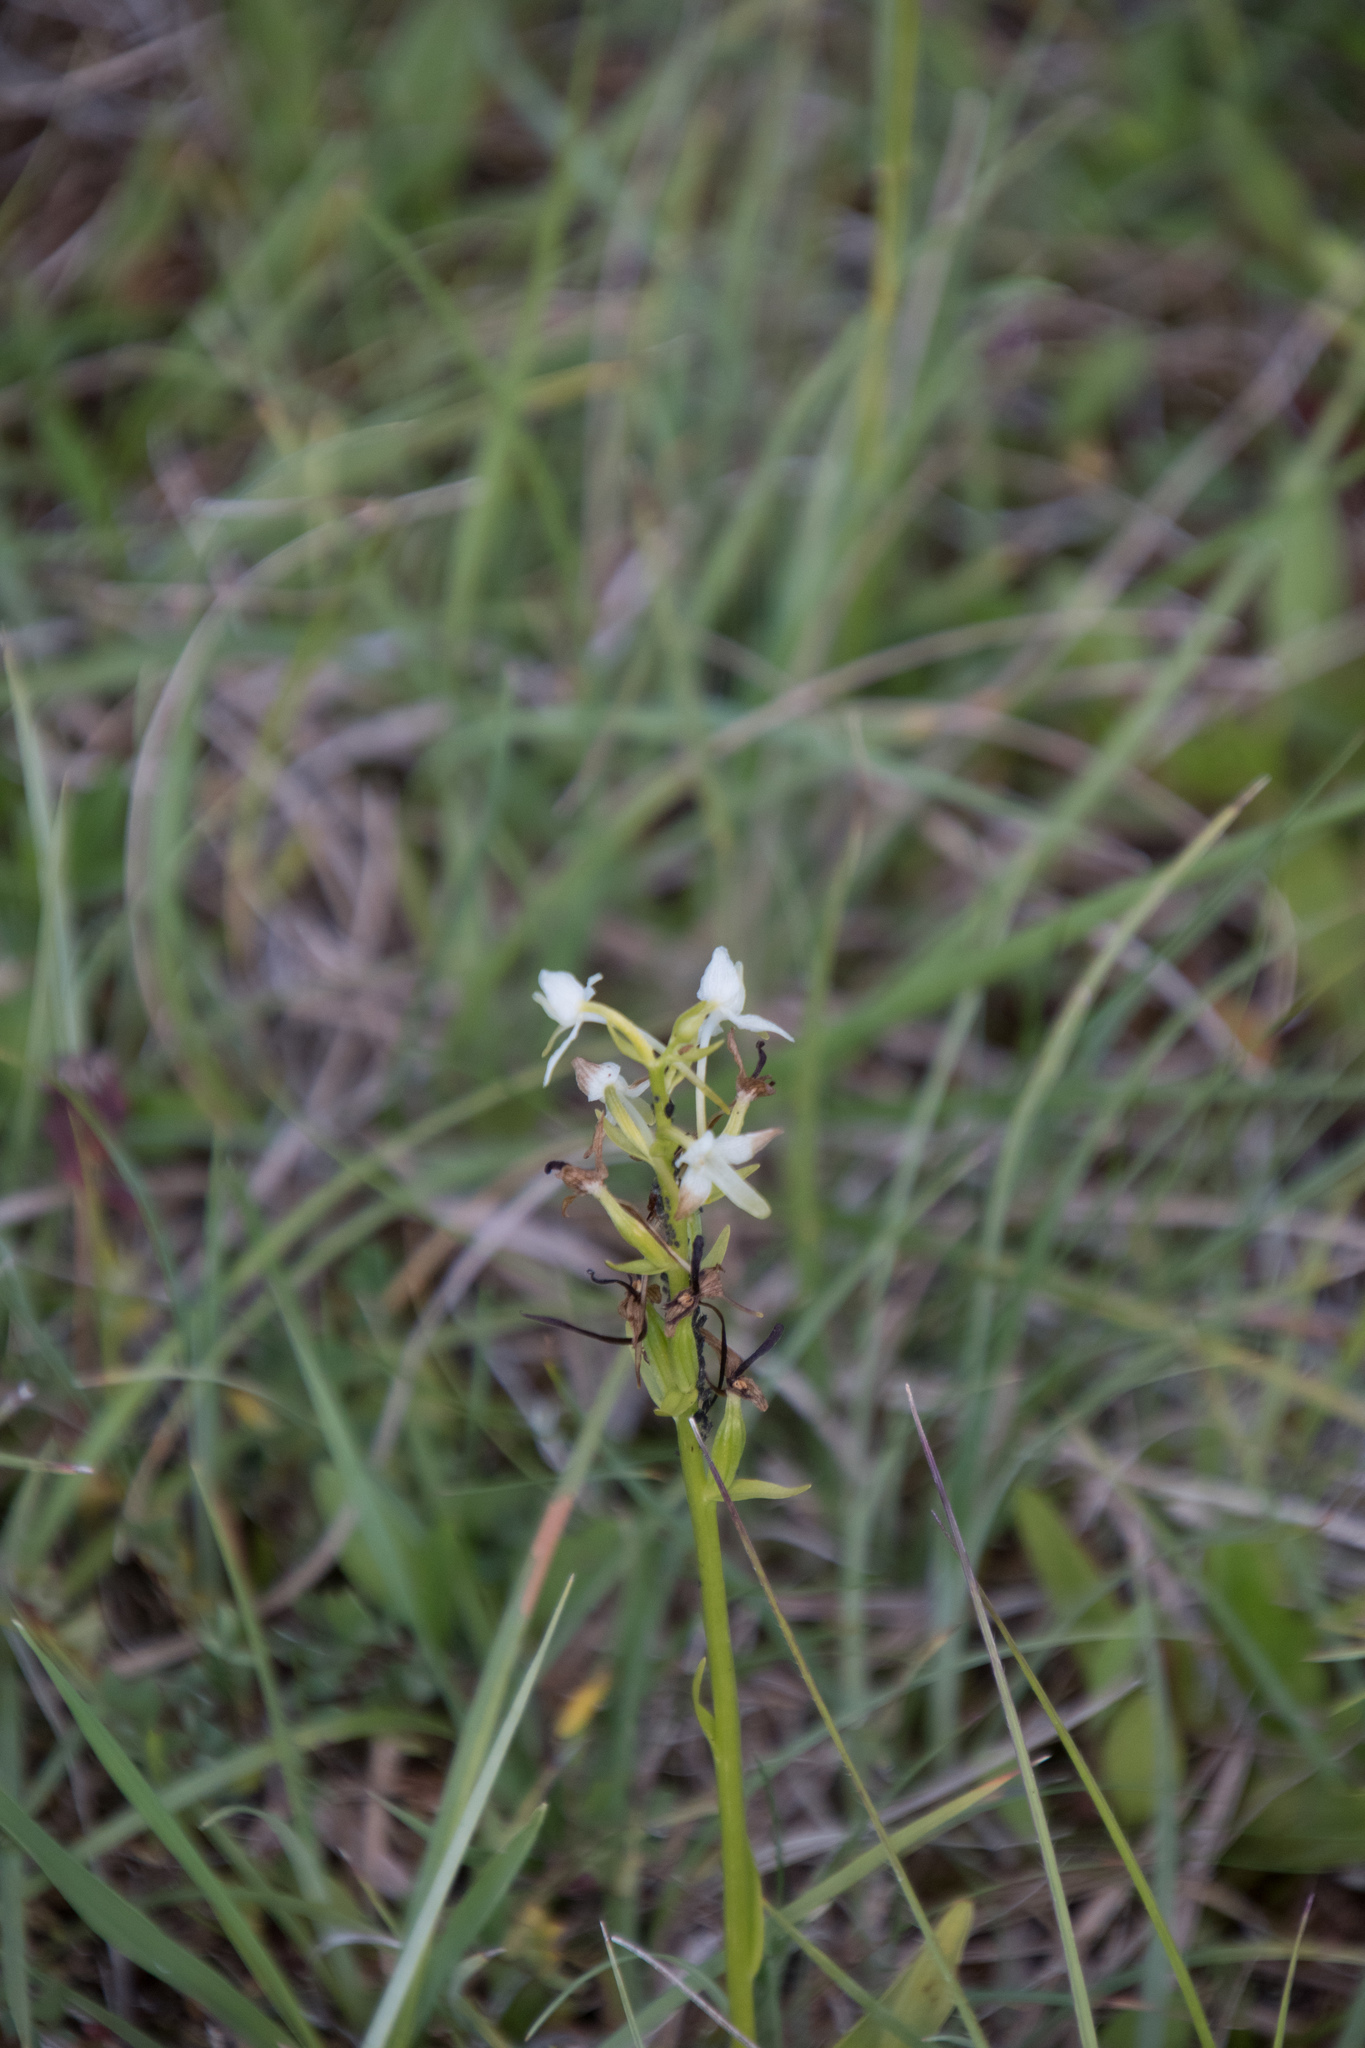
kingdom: Plantae
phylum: Tracheophyta
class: Liliopsida
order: Asparagales
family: Orchidaceae
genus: Platanthera
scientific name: Platanthera bifolia
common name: Lesser butterfly-orchid
